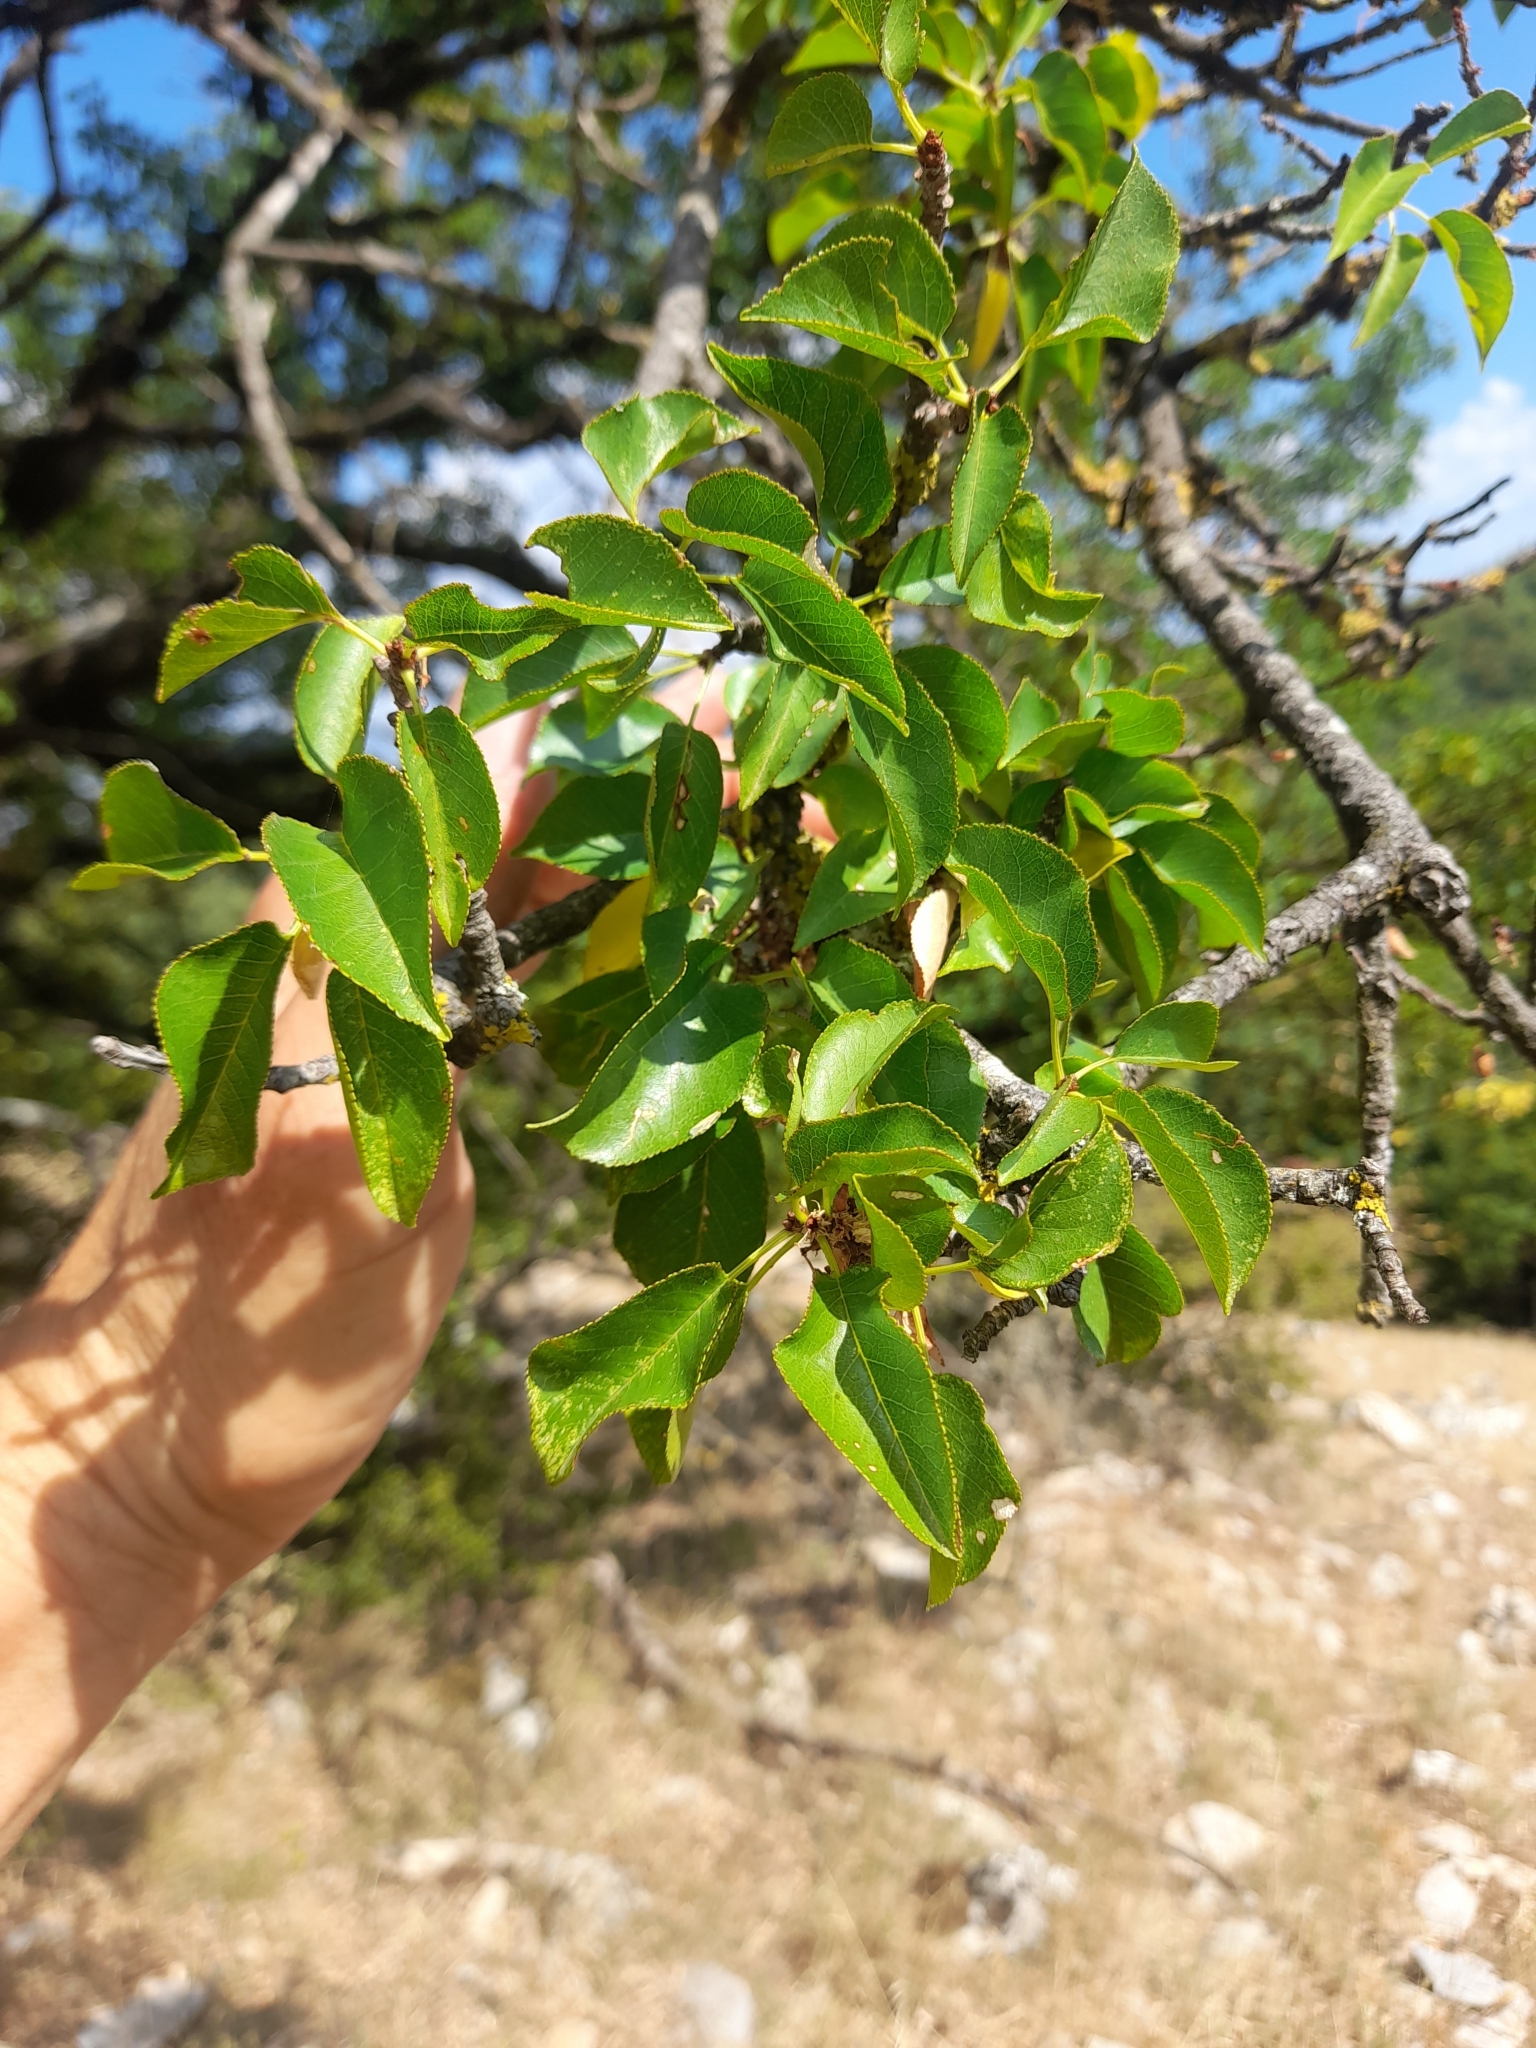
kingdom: Plantae
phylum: Tracheophyta
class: Magnoliopsida
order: Rosales
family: Rosaceae
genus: Prunus
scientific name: Prunus mahaleb
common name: Mahaleb cherry
